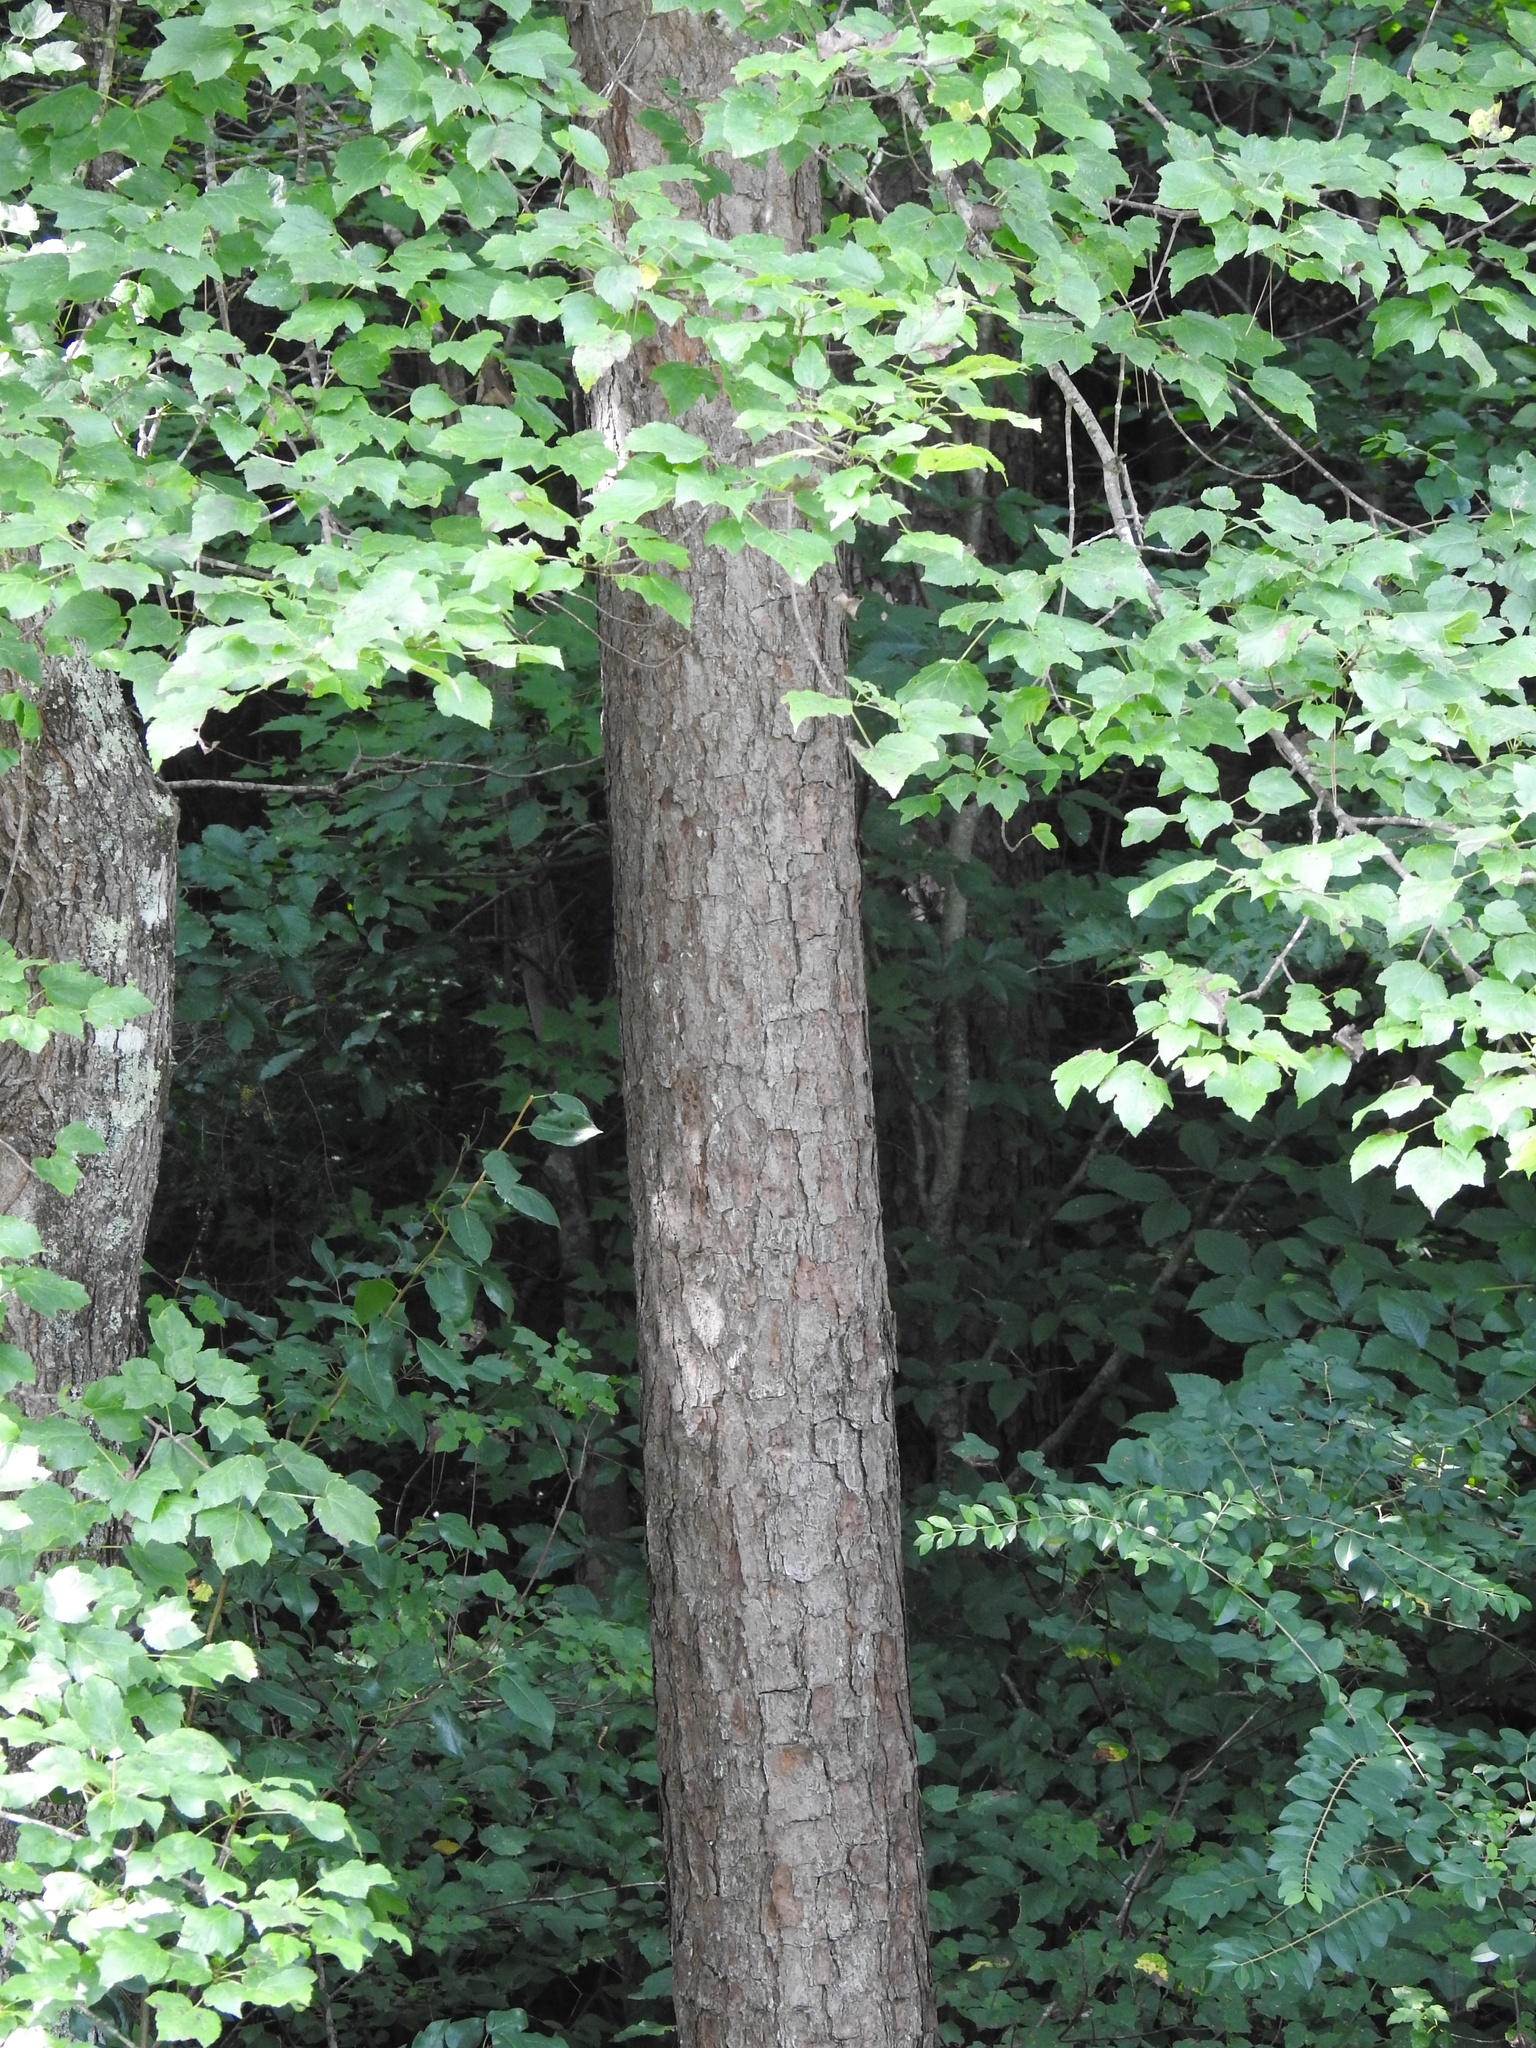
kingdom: Plantae
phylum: Tracheophyta
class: Pinopsida
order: Pinales
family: Pinaceae
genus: Pinus
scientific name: Pinus echinata
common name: Shortleaf pine
